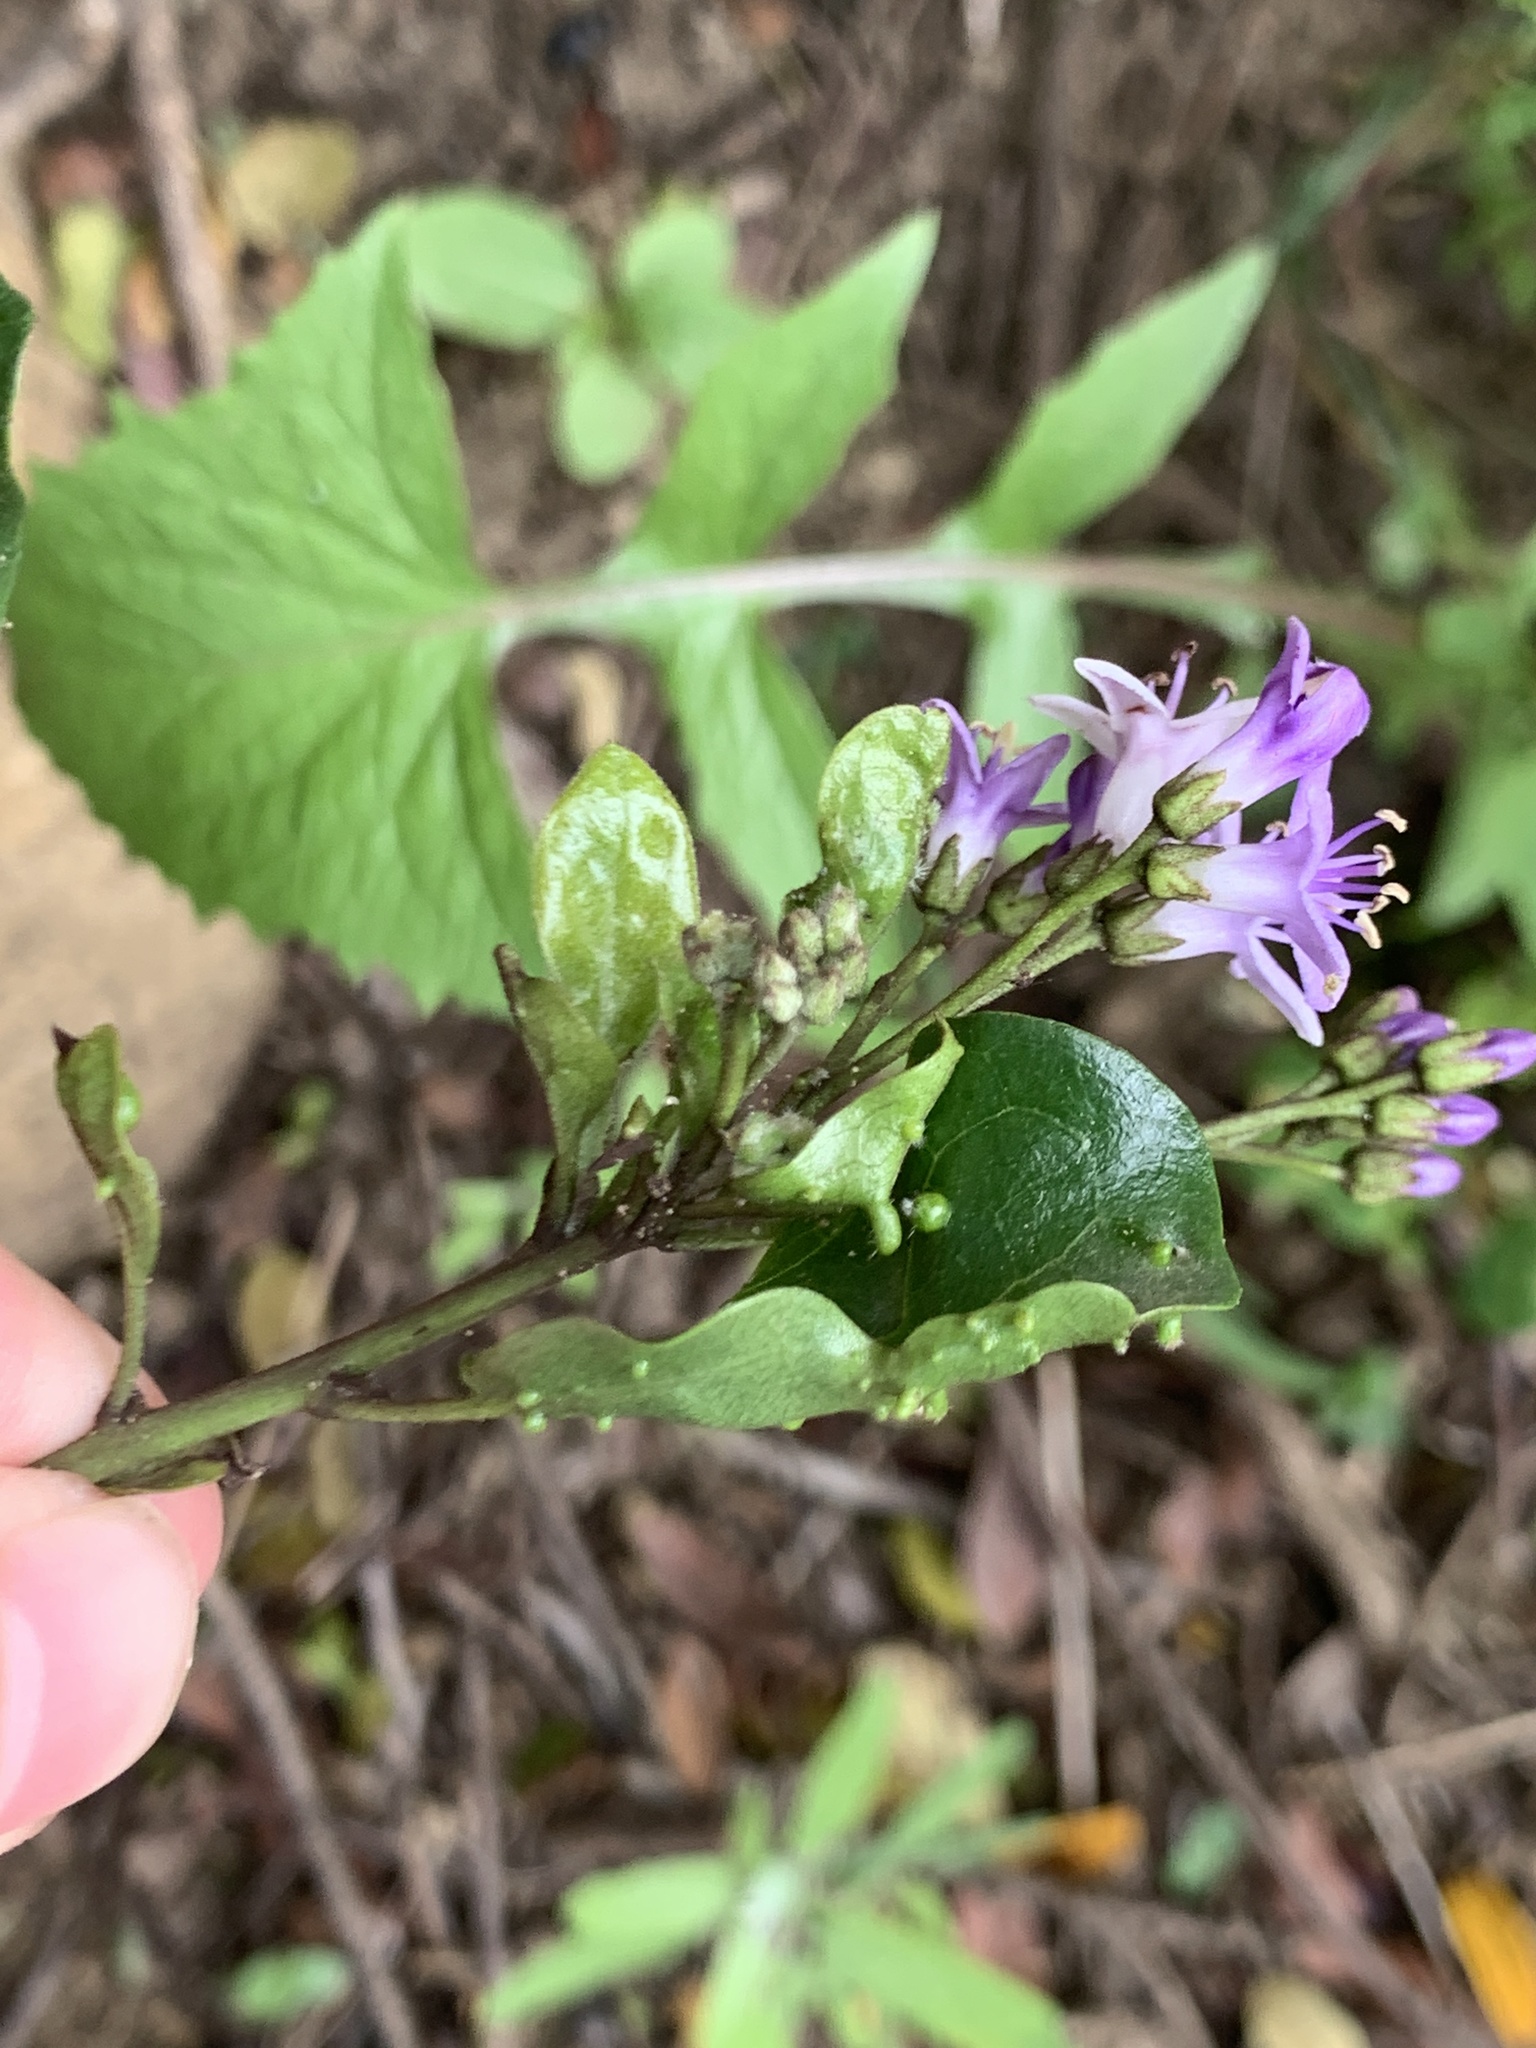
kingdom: Plantae
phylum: Tracheophyta
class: Magnoliopsida
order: Boraginales
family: Ehretiaceae
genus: Ehretia
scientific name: Ehretia rigida
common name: Cape lilac
